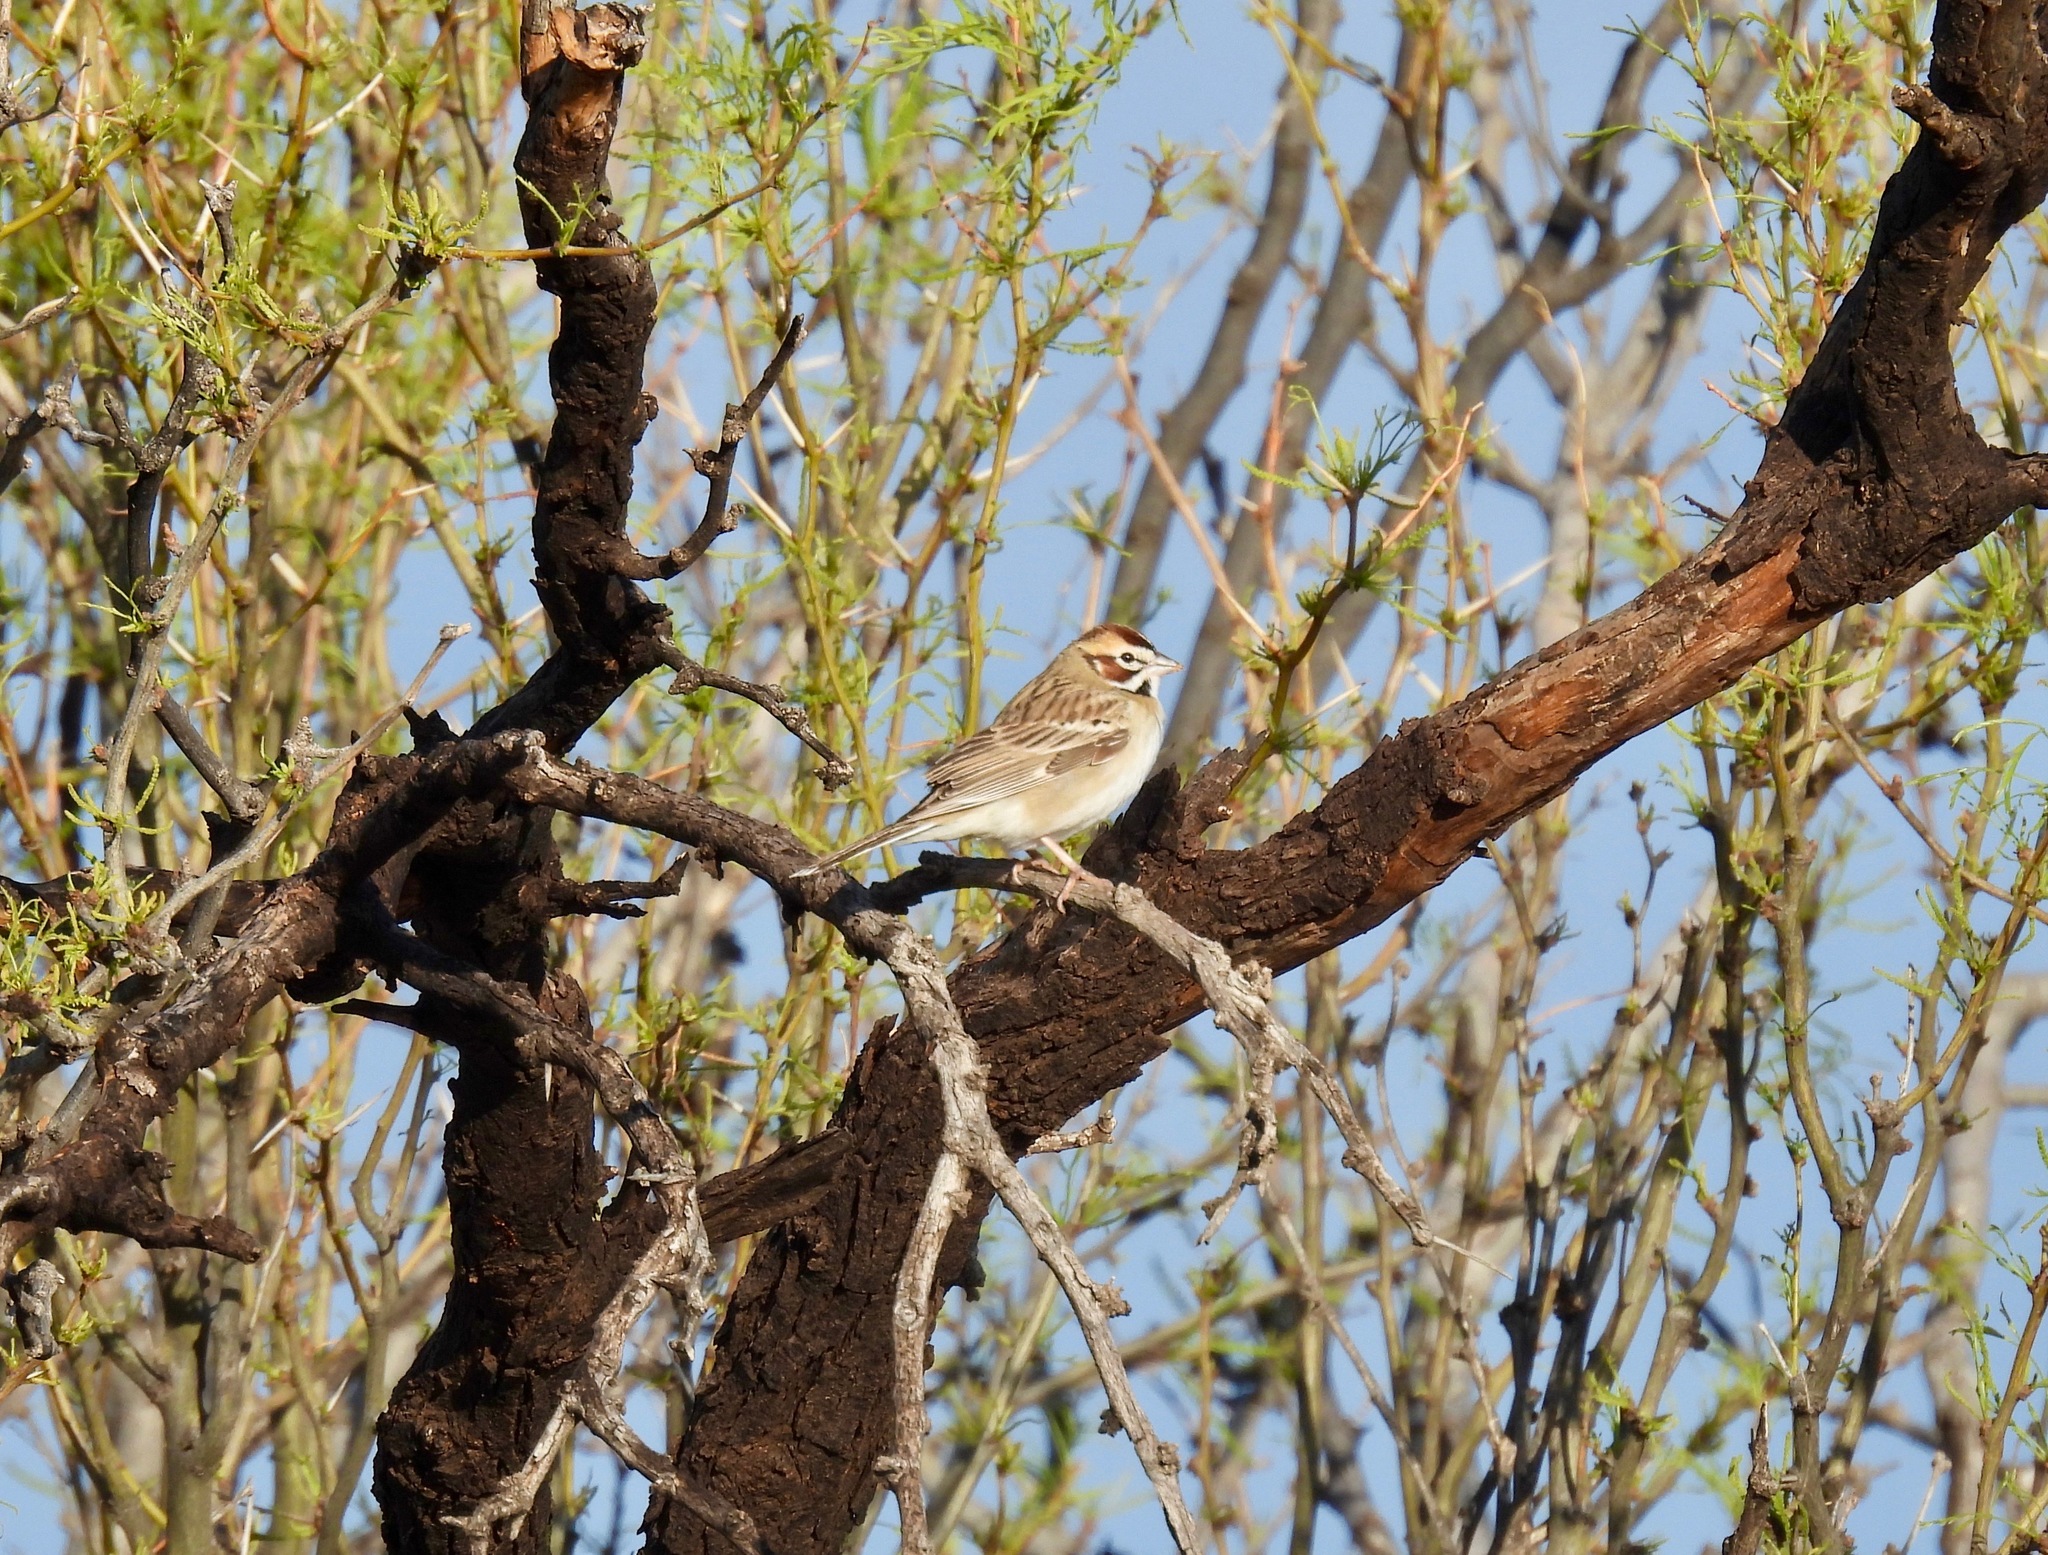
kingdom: Animalia
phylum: Chordata
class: Aves
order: Passeriformes
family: Passerellidae
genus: Chondestes
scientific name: Chondestes grammacus
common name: Lark sparrow
